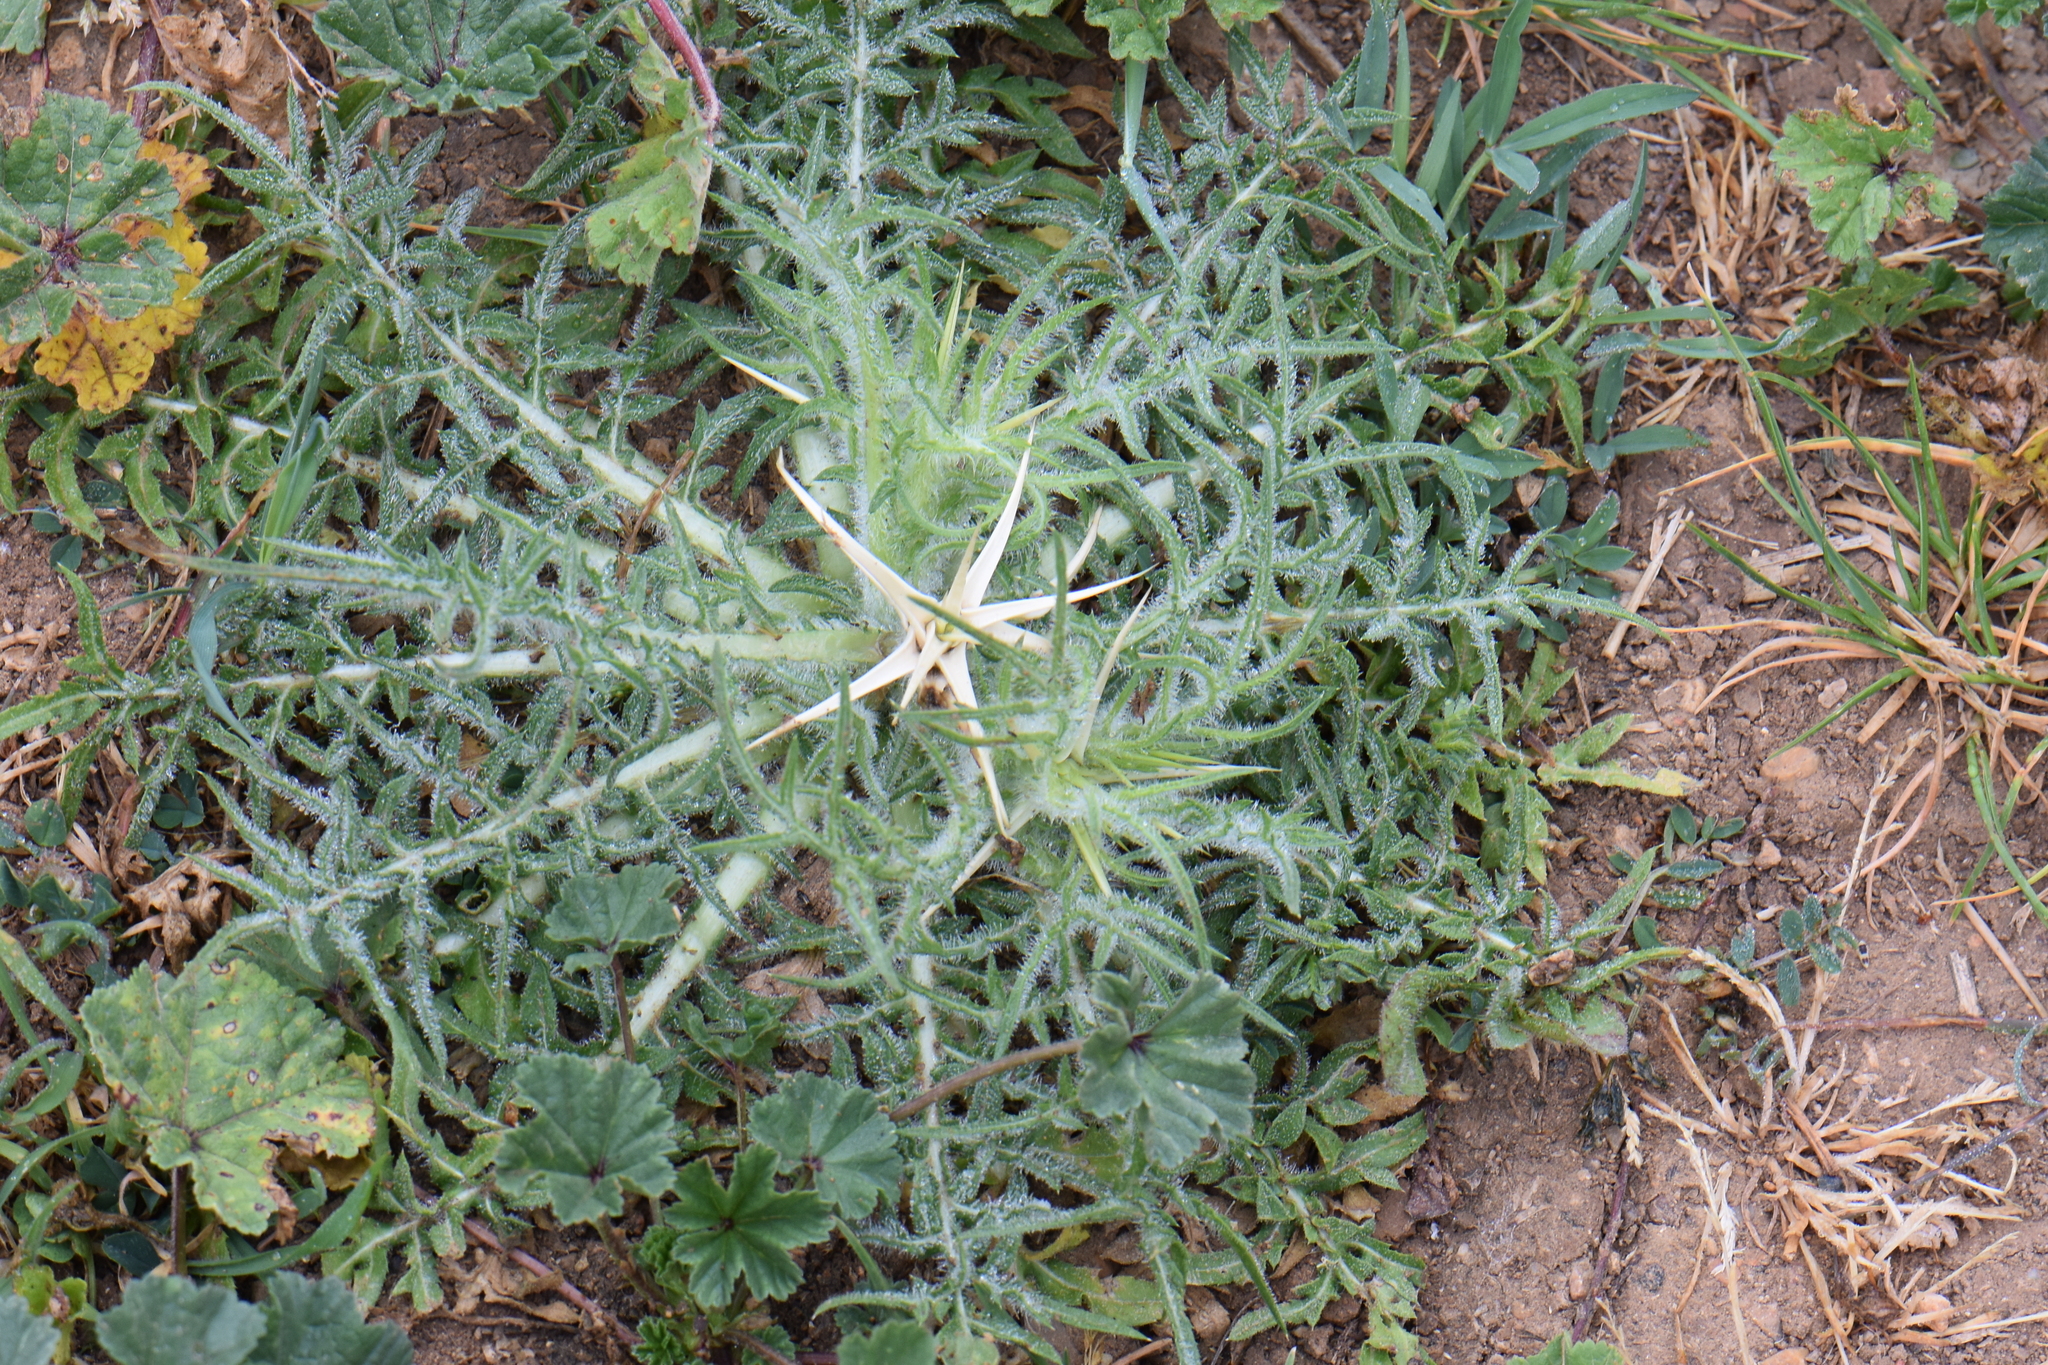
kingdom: Plantae
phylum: Tracheophyta
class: Magnoliopsida
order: Asterales
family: Asteraceae
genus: Centaurea
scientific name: Centaurea calcitrapa
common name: Red star-thistle
